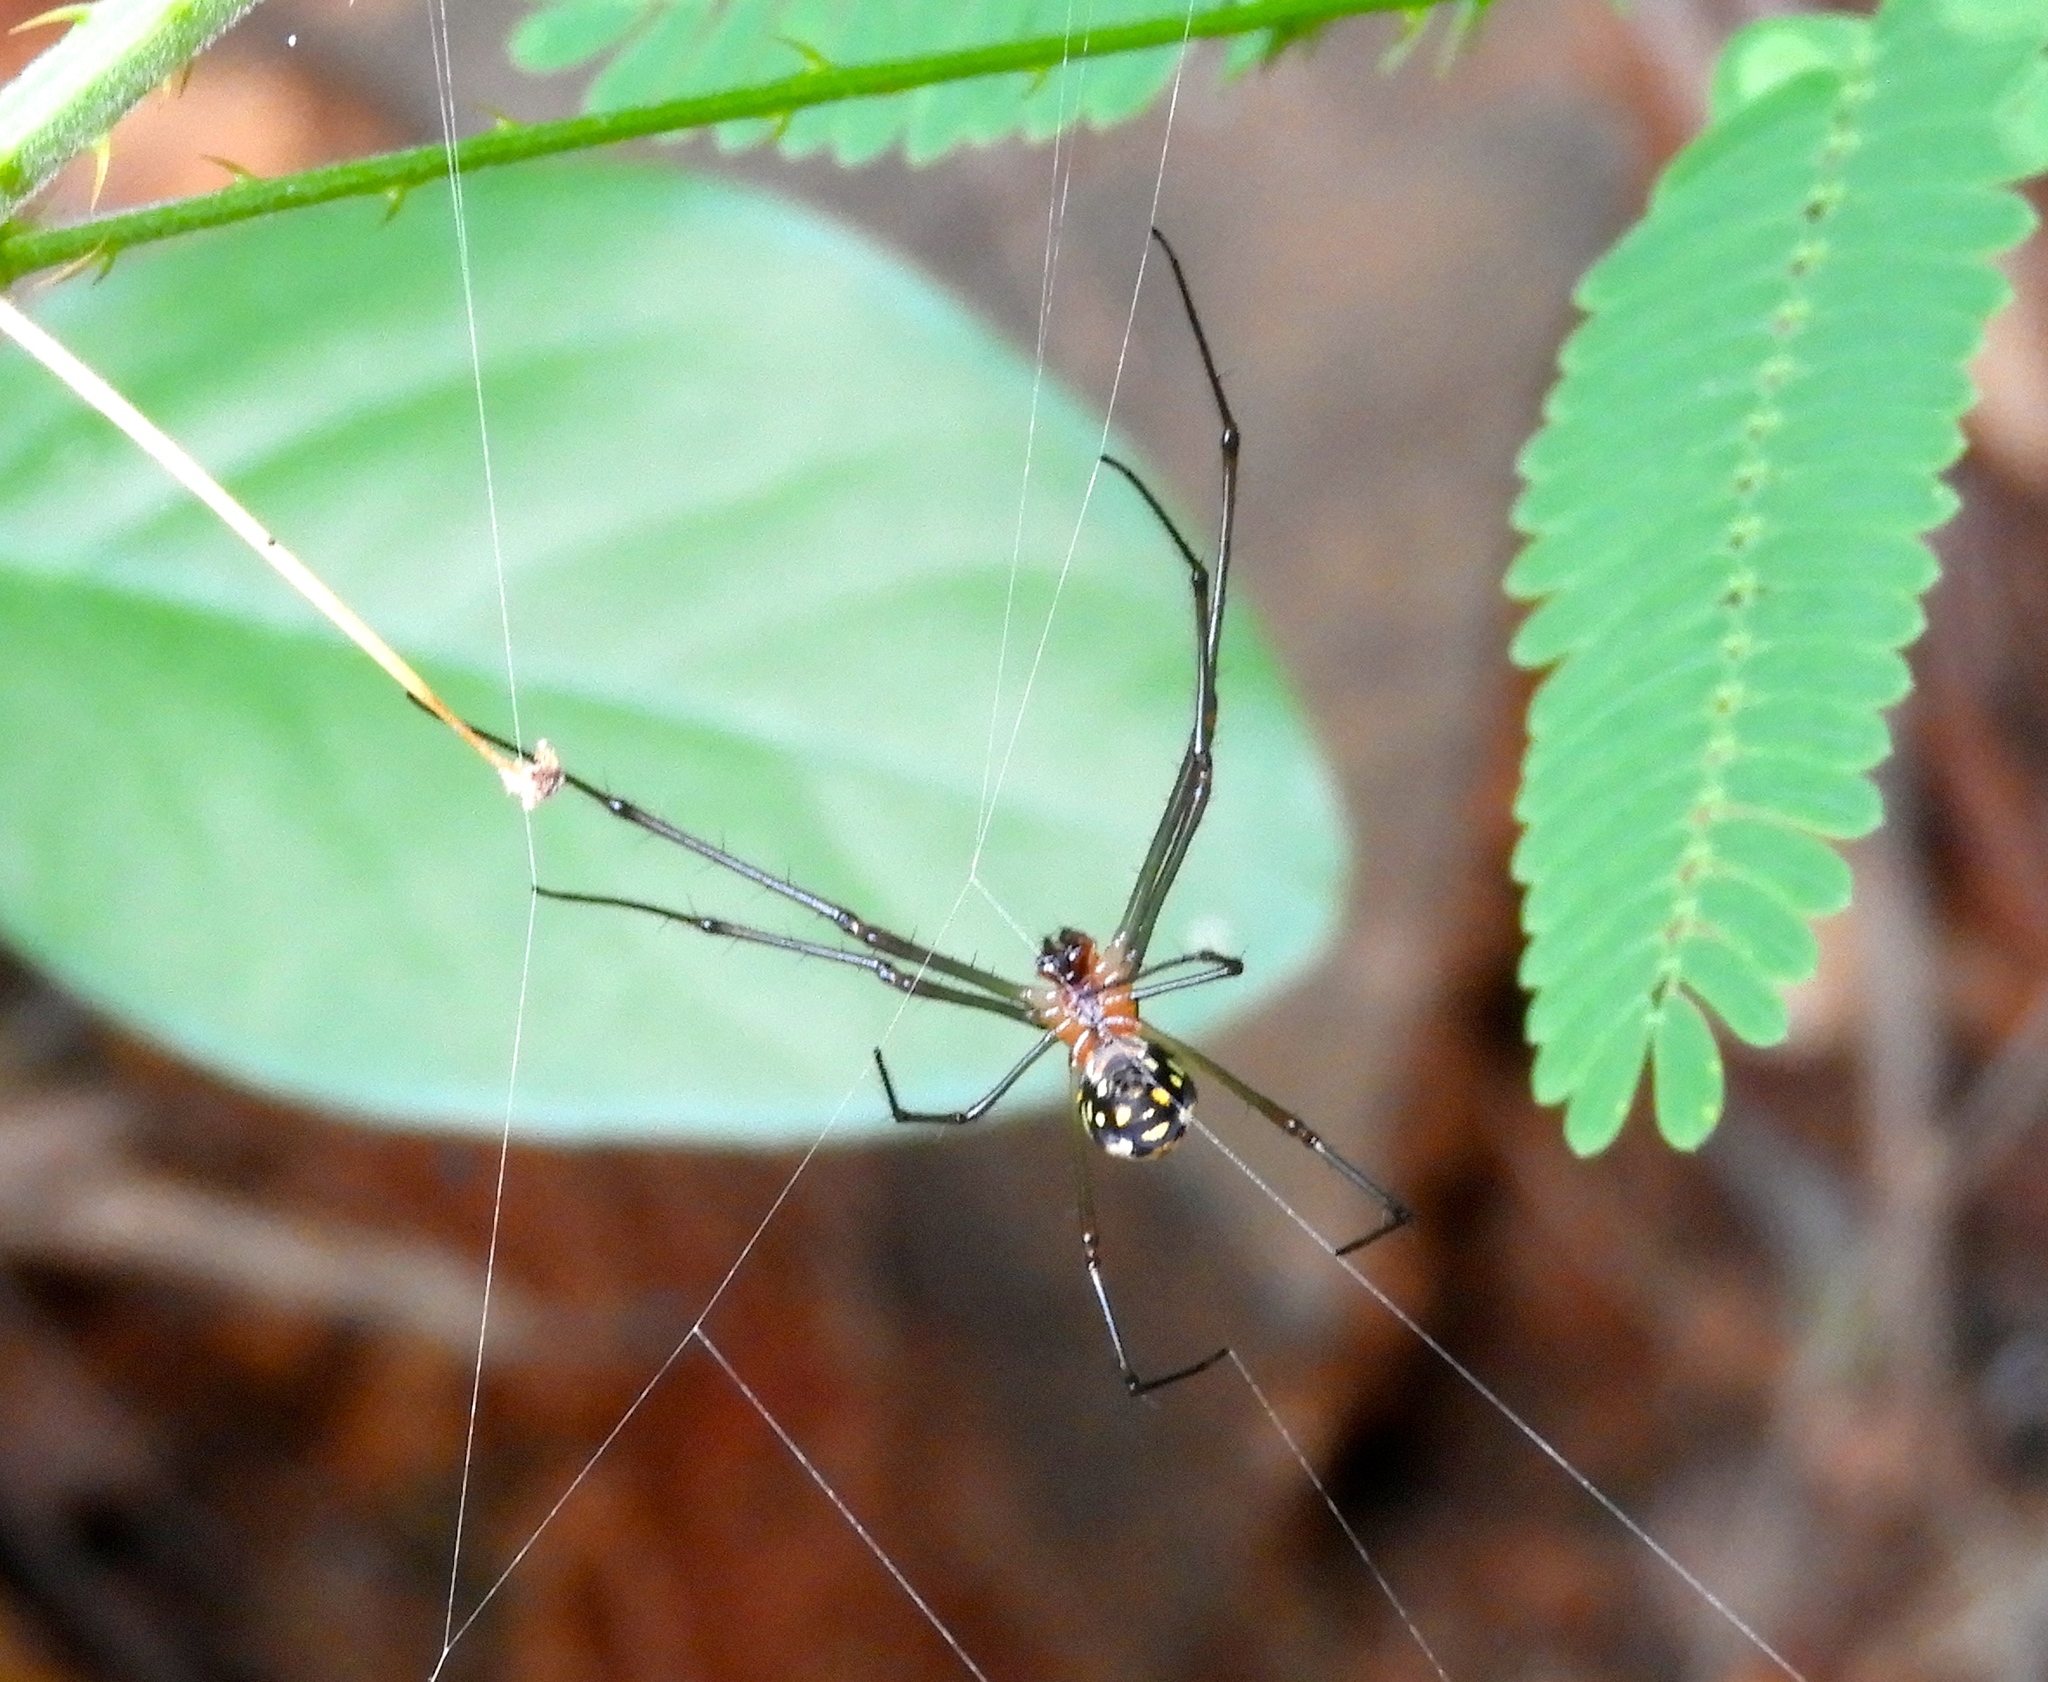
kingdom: Animalia
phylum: Arthropoda
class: Arachnida
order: Araneae
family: Tetragnathidae
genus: Leucauge
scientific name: Leucauge
